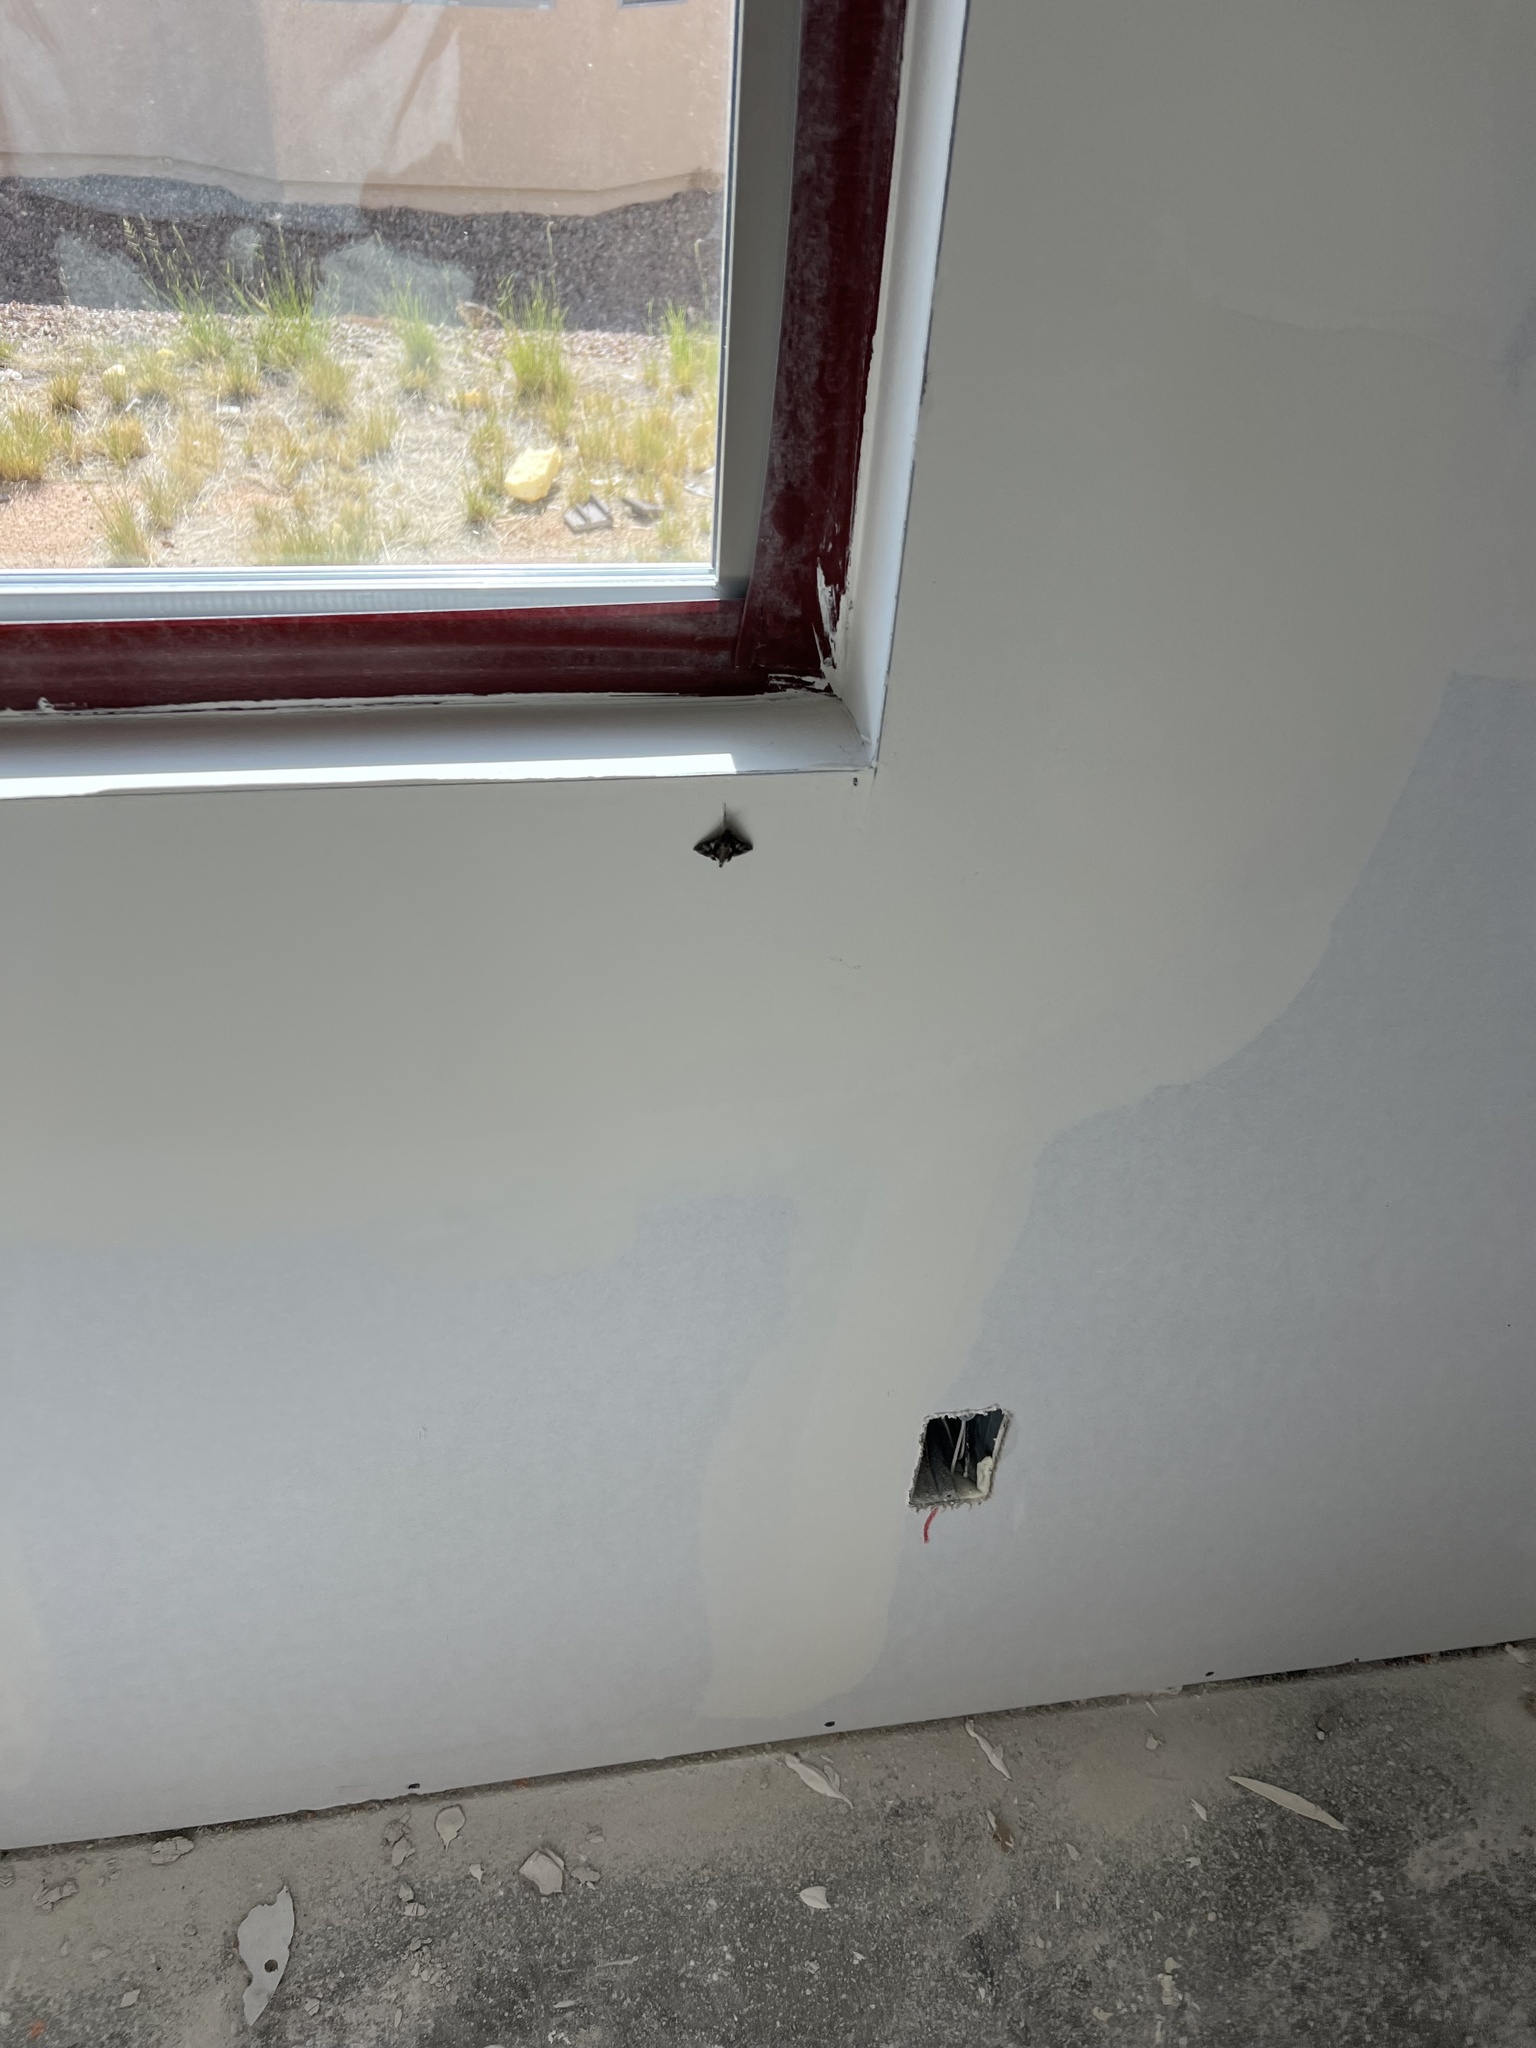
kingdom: Animalia
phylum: Arthropoda
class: Insecta
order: Lepidoptera
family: Erebidae
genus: Melipotis
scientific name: Melipotis jucunda
